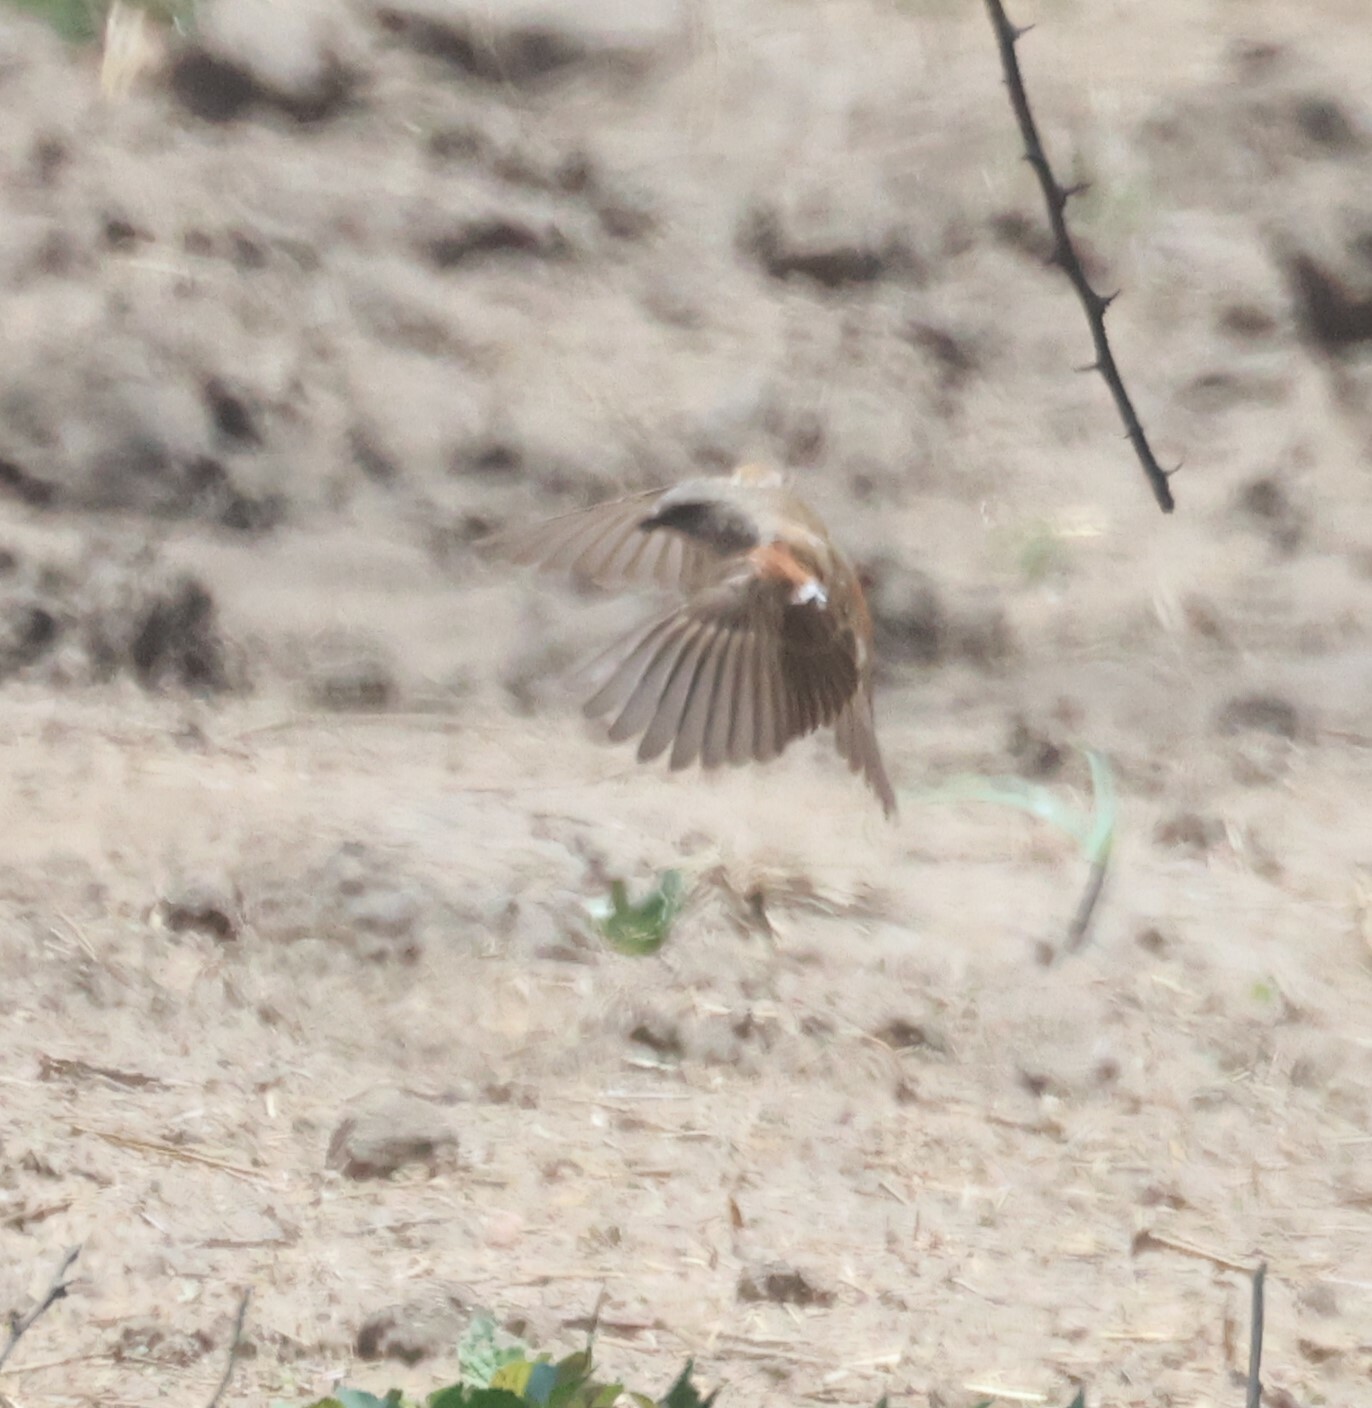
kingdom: Animalia
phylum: Chordata
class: Aves
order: Passeriformes
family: Passeridae
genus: Passer
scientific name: Passer diffusus
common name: Southern grey-headed sparrow
